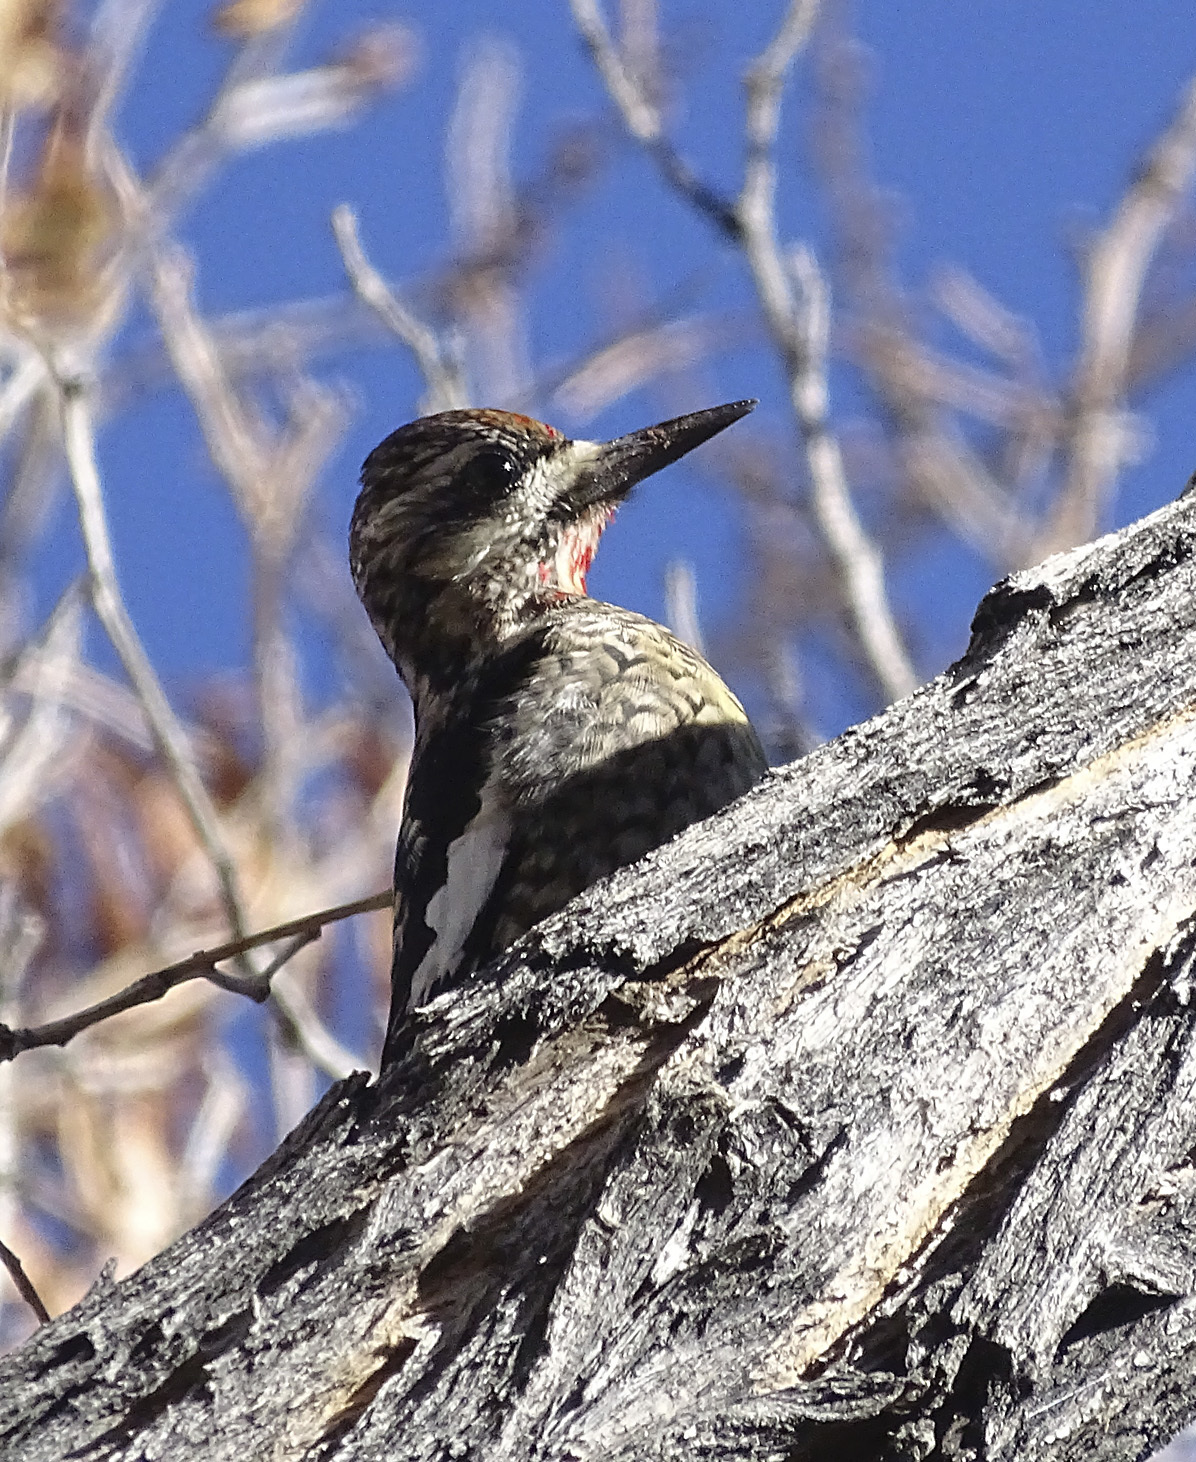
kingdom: Animalia
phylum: Chordata
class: Aves
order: Piciformes
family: Picidae
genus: Sphyrapicus
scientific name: Sphyrapicus varius
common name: Yellow-bellied sapsucker
